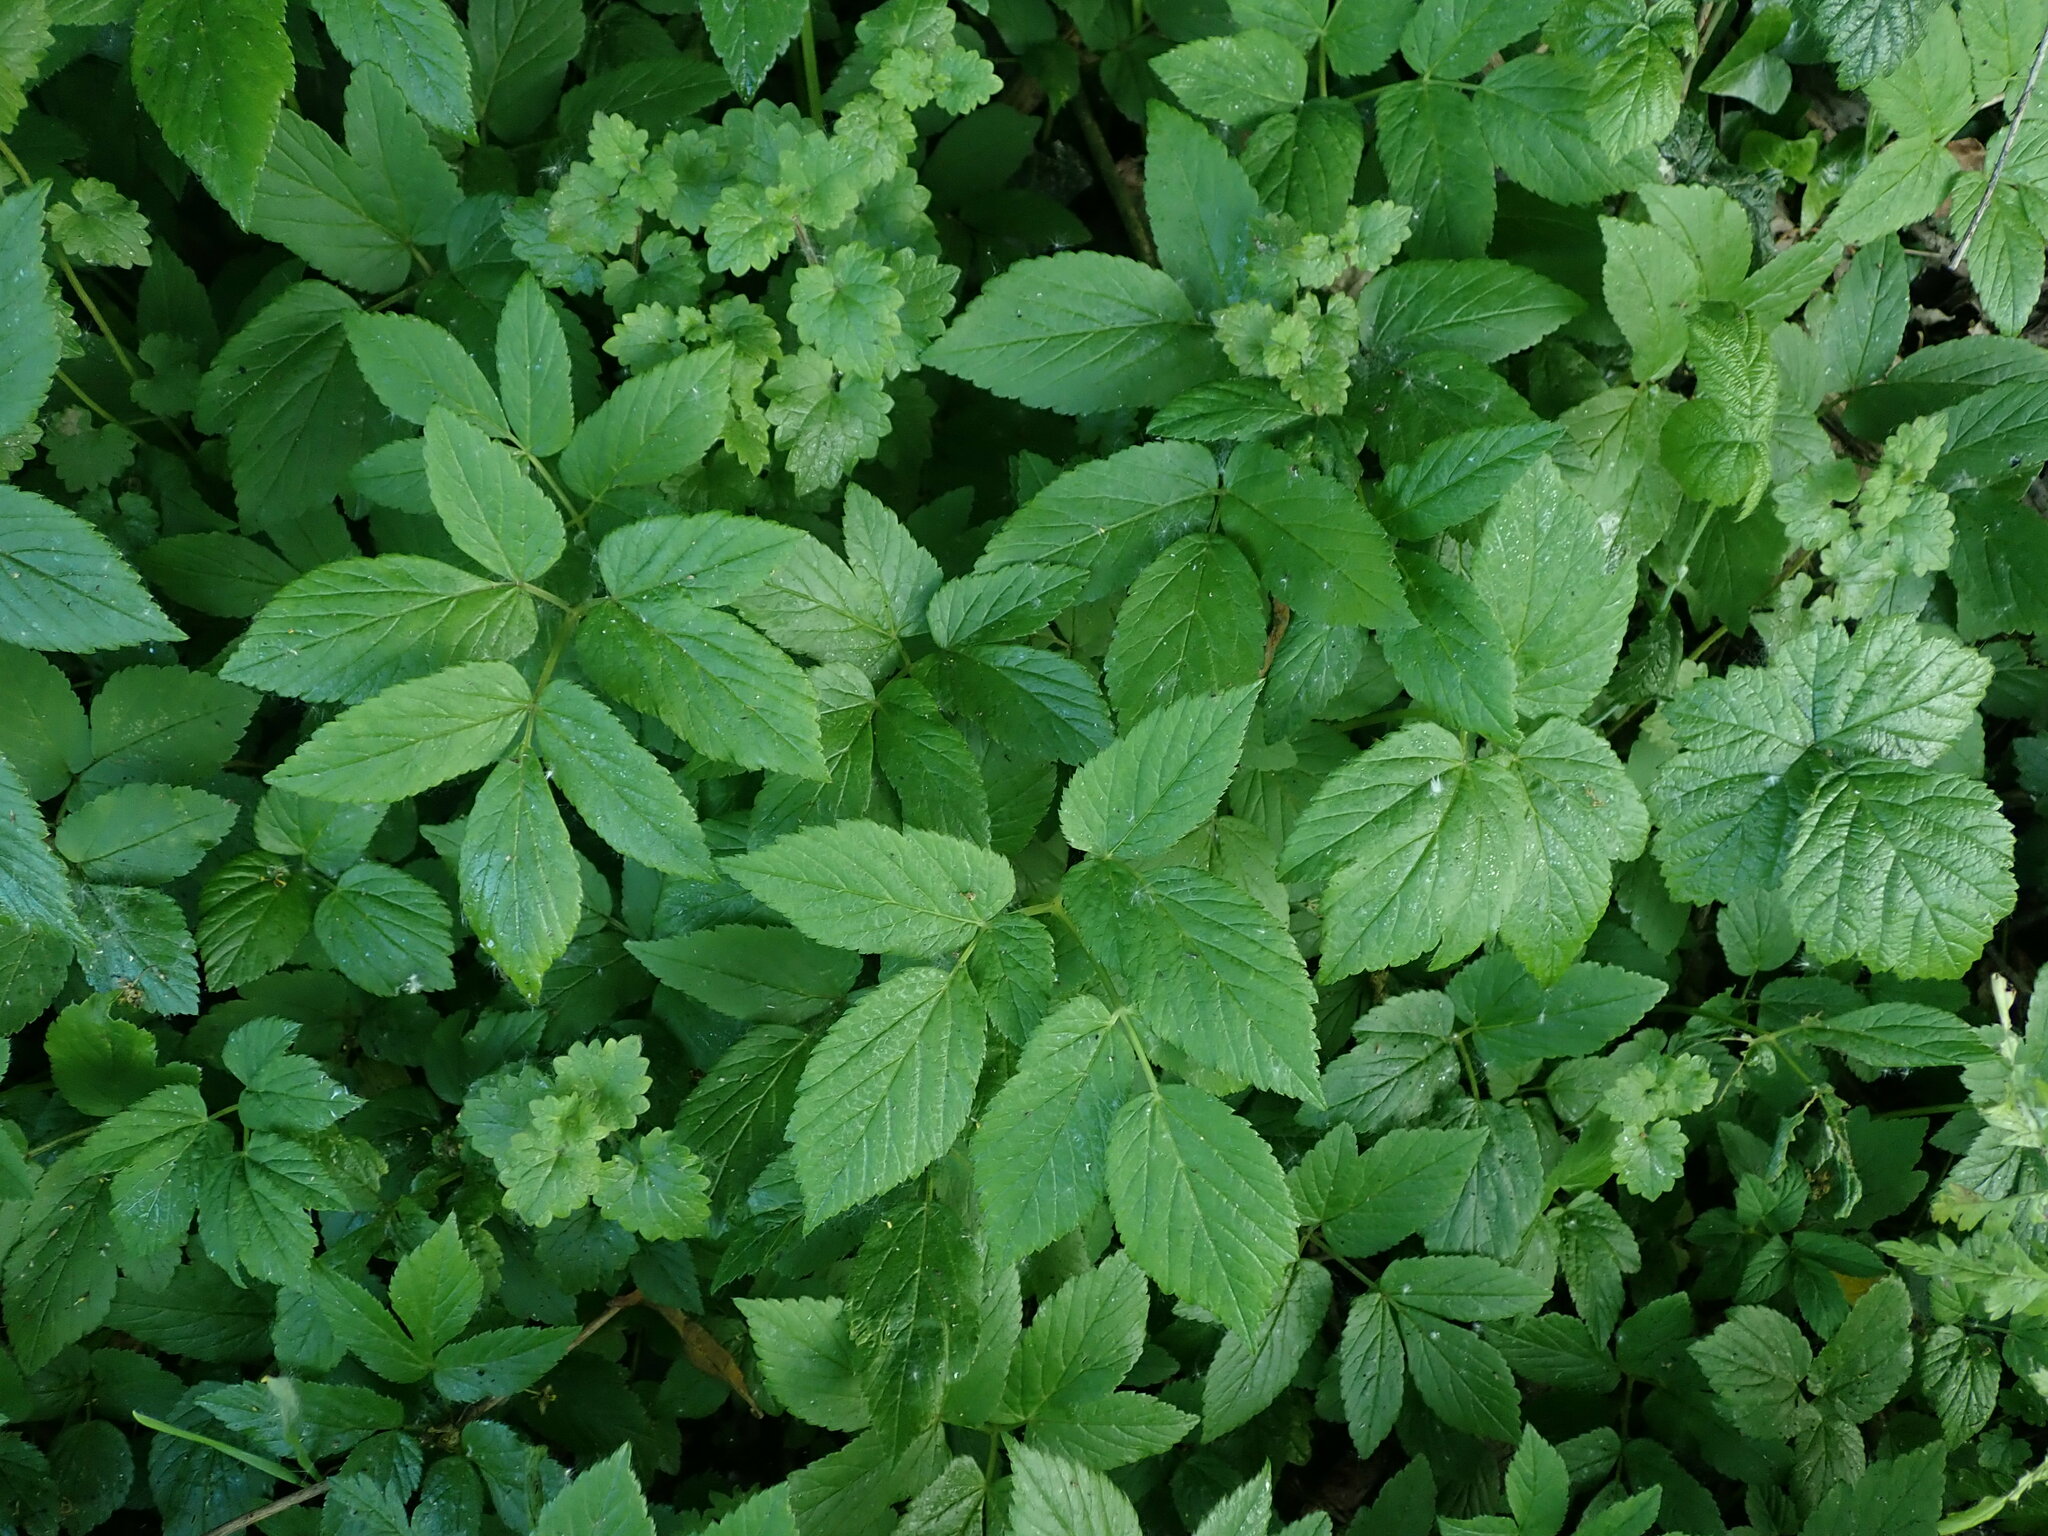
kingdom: Plantae
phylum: Tracheophyta
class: Magnoliopsida
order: Apiales
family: Apiaceae
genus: Aegopodium
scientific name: Aegopodium podagraria
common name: Ground-elder
